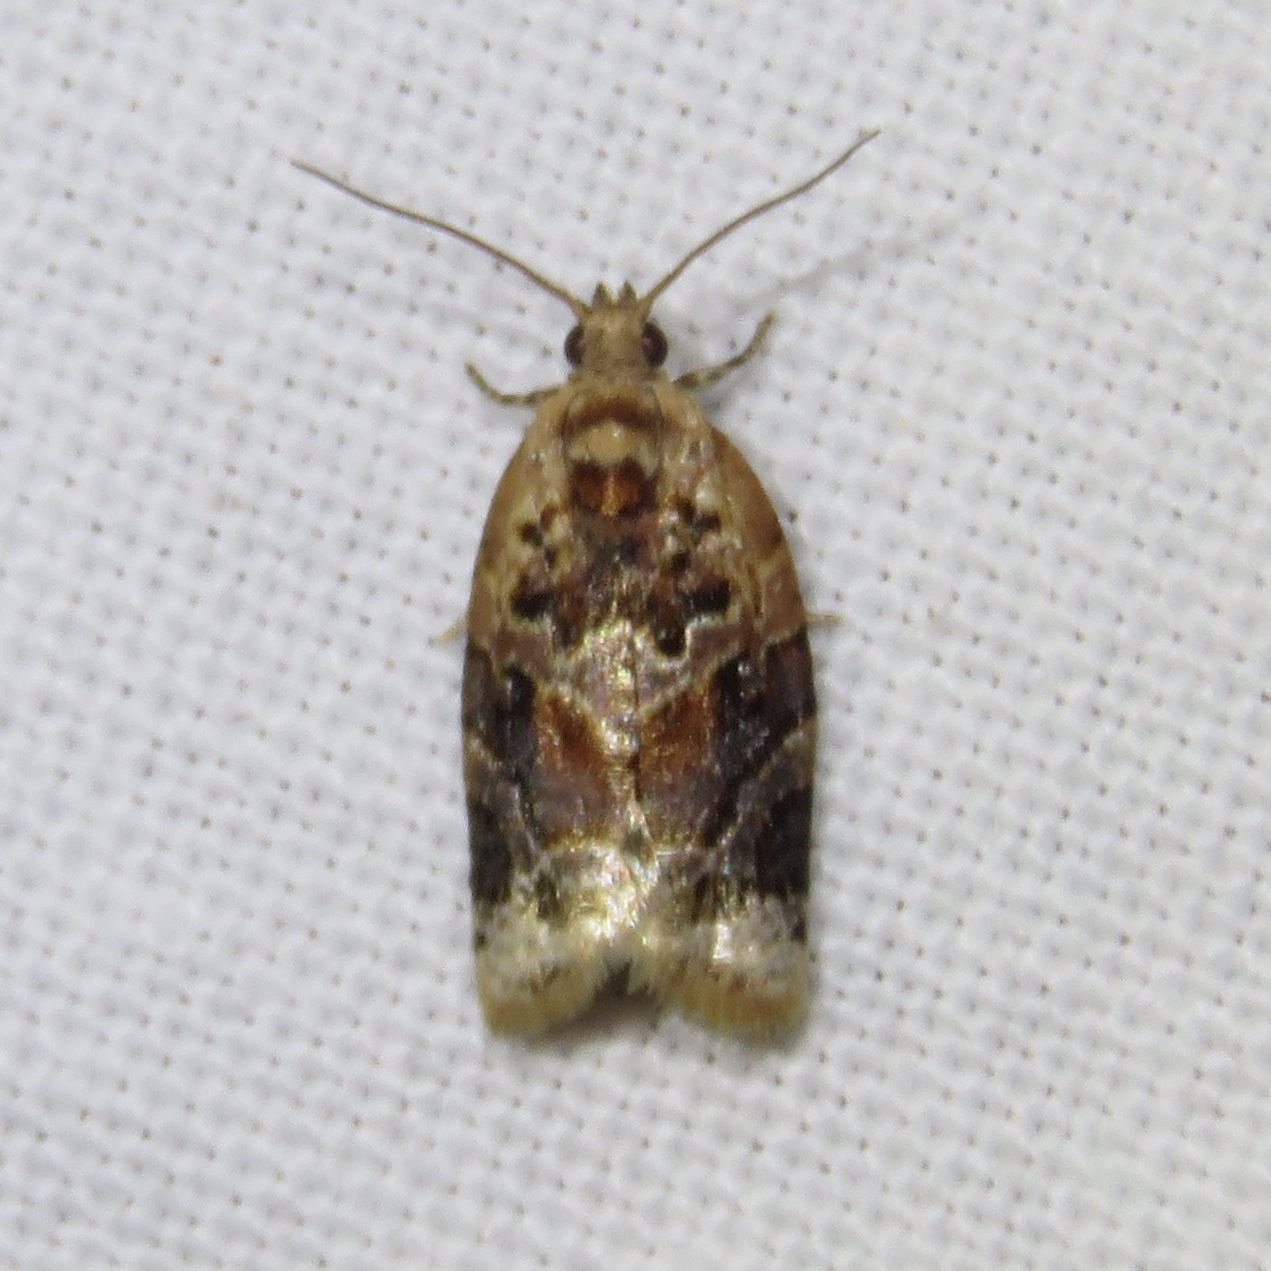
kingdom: Animalia
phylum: Arthropoda
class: Insecta
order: Lepidoptera
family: Tortricidae
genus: Argyrotaenia
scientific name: Argyrotaenia velutinana
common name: Red-banded leafroller moth
